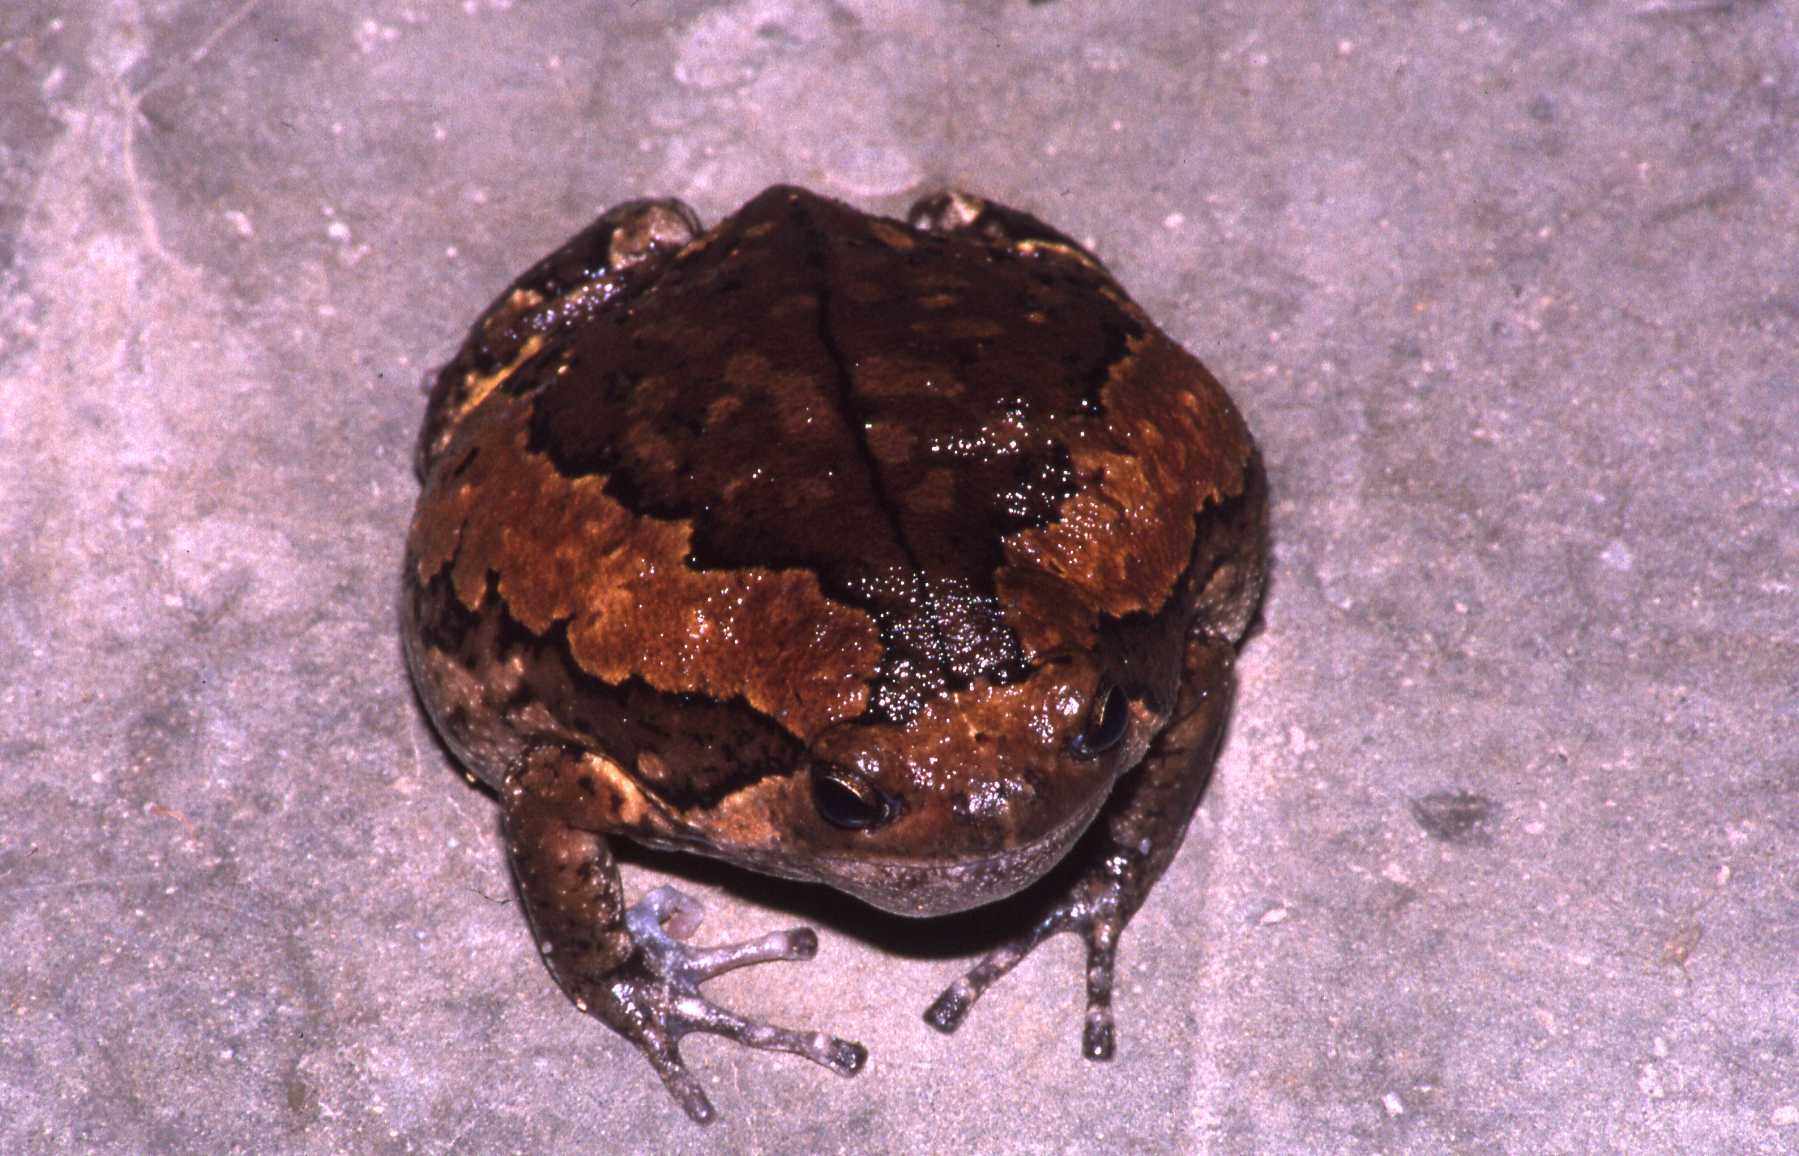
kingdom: Animalia
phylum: Chordata
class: Amphibia
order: Anura
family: Microhylidae
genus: Kaloula
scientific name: Kaloula pulchra
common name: Common,banded bullfrog
